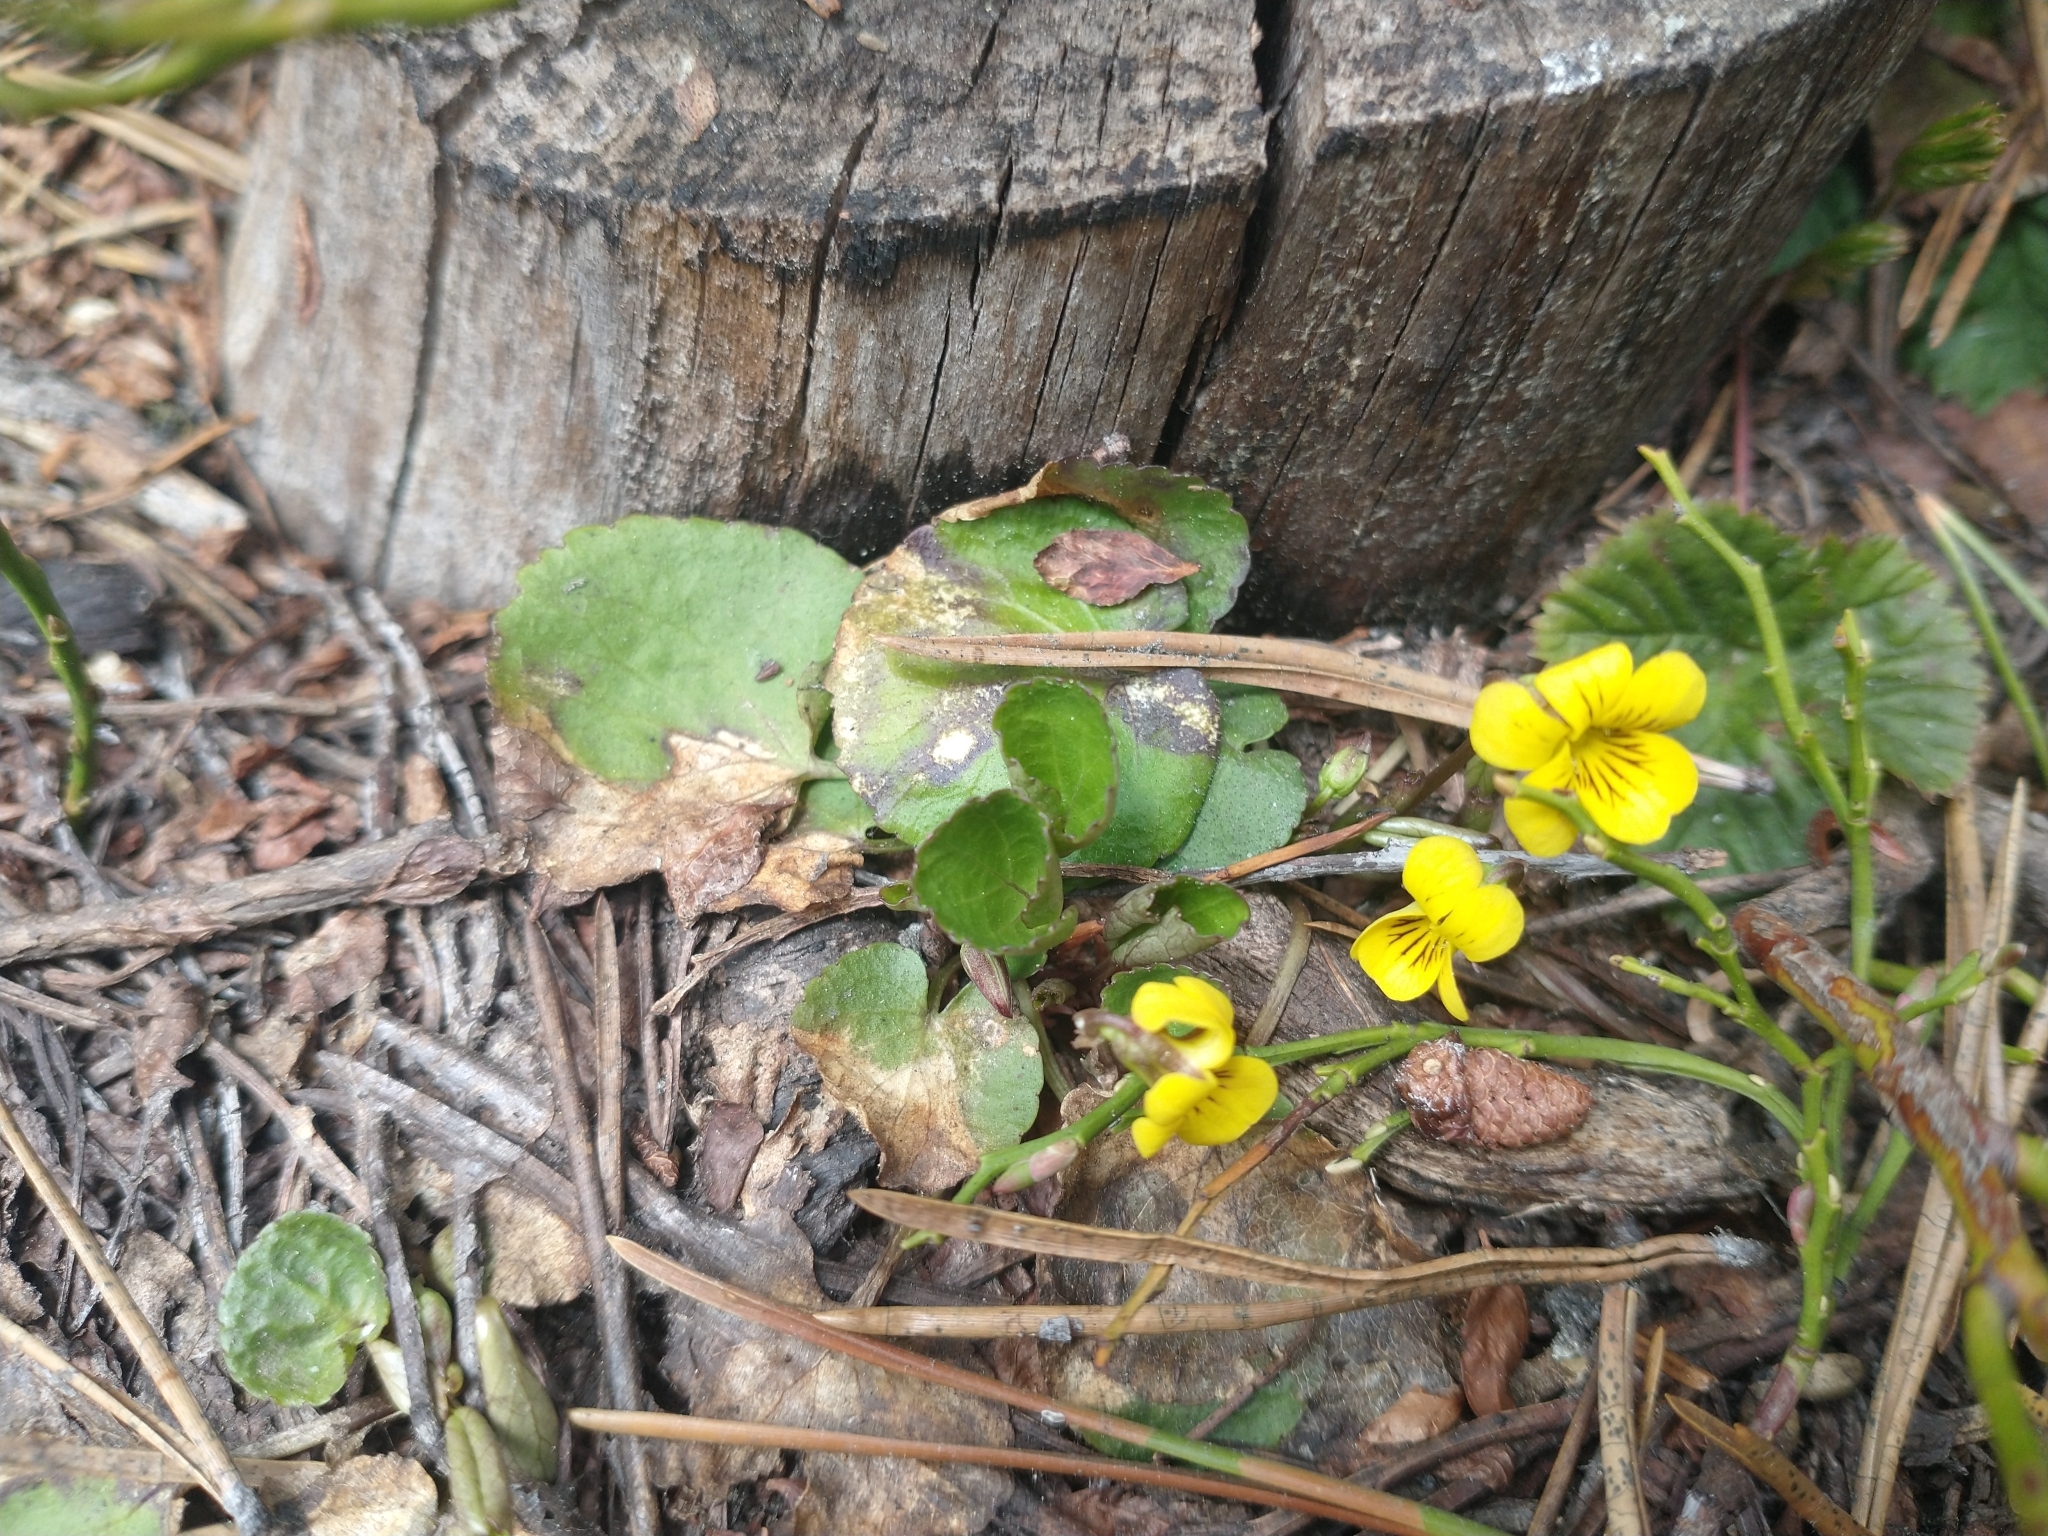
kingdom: Plantae
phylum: Tracheophyta
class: Magnoliopsida
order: Malpighiales
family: Violaceae
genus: Viola
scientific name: Viola orbiculata
